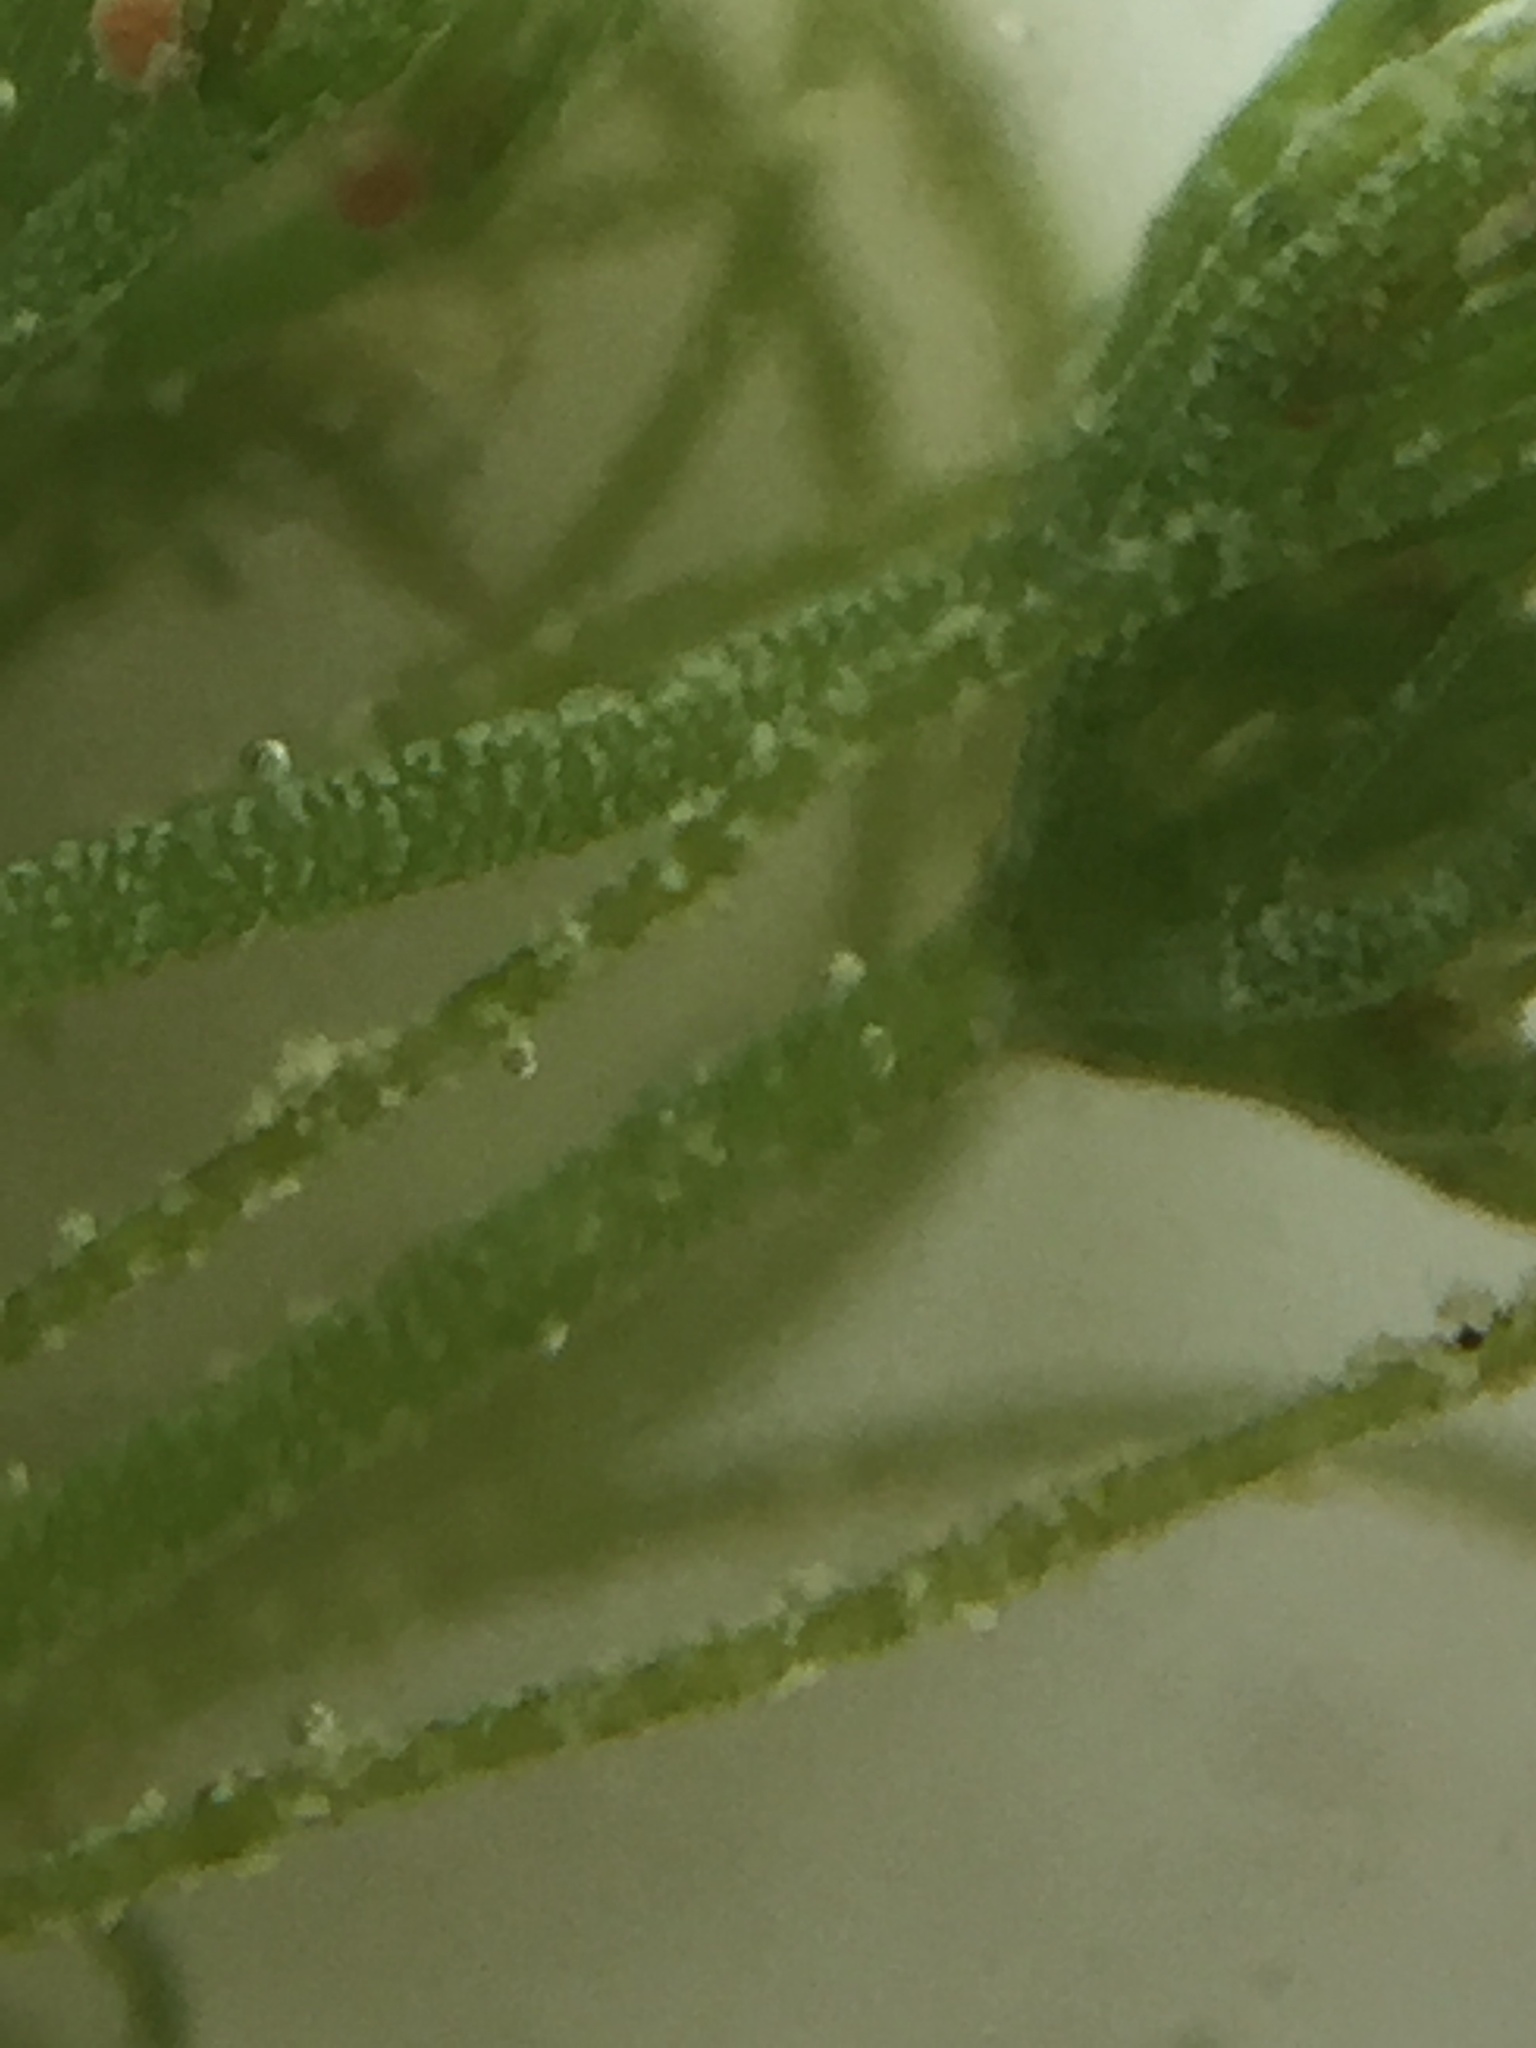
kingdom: Plantae
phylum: Charophyta
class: Charophyceae
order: Charales
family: Characeae
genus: Chara
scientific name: Chara vulgaris
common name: Common stonewort
